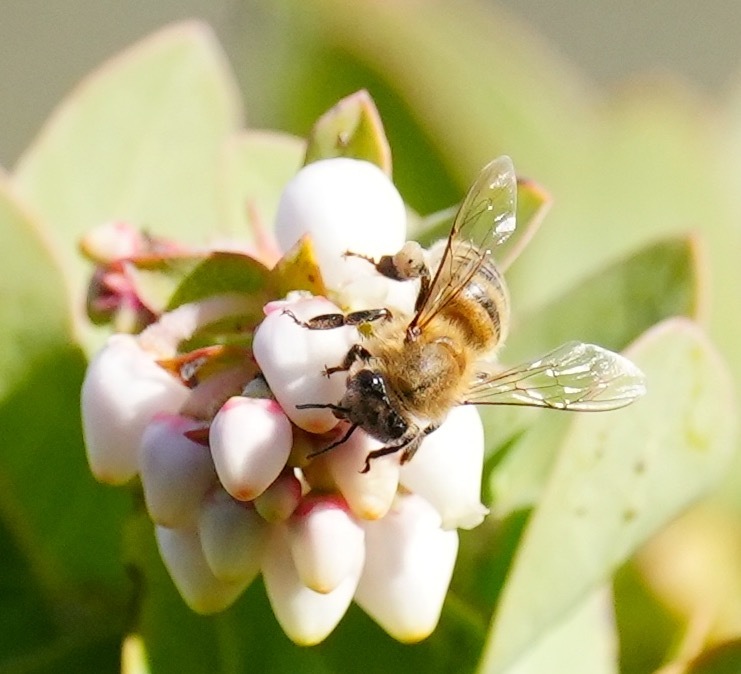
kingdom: Animalia
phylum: Arthropoda
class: Insecta
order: Hymenoptera
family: Apidae
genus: Apis
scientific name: Apis mellifera
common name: Honey bee
